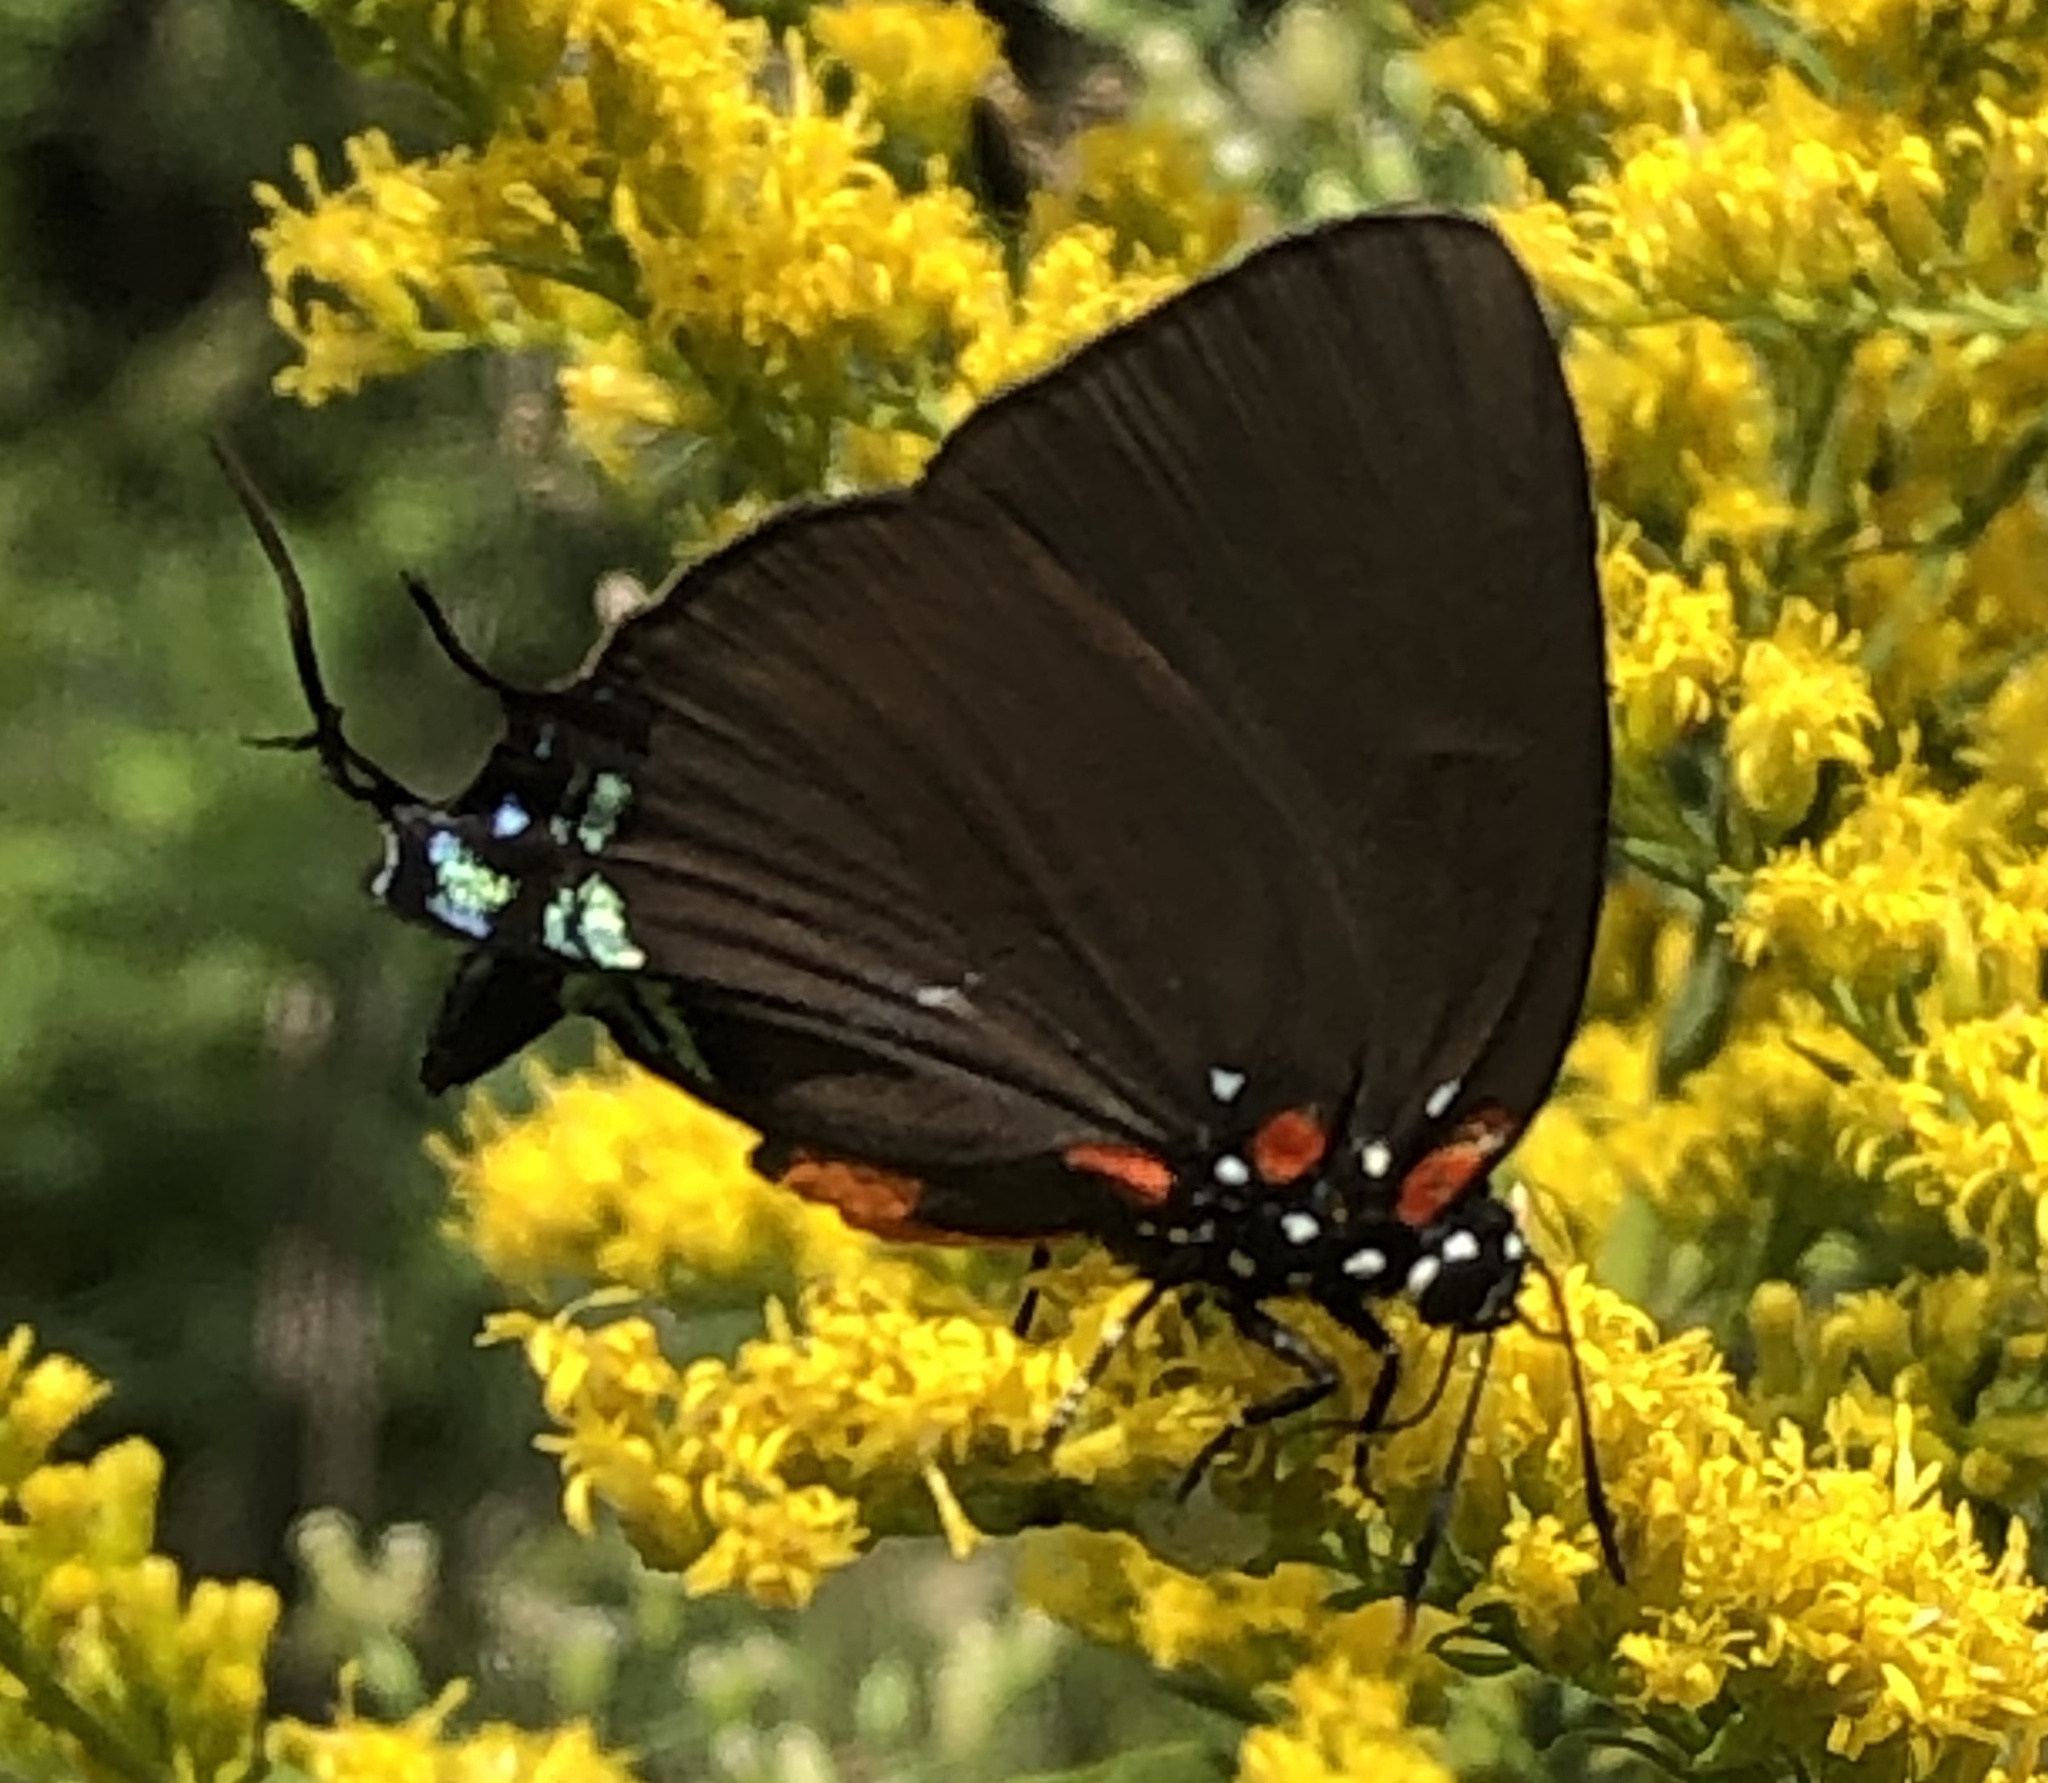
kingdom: Animalia
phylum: Arthropoda
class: Insecta
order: Lepidoptera
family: Lycaenidae
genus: Atlides
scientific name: Atlides halesus
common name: Great purple hairstreak
